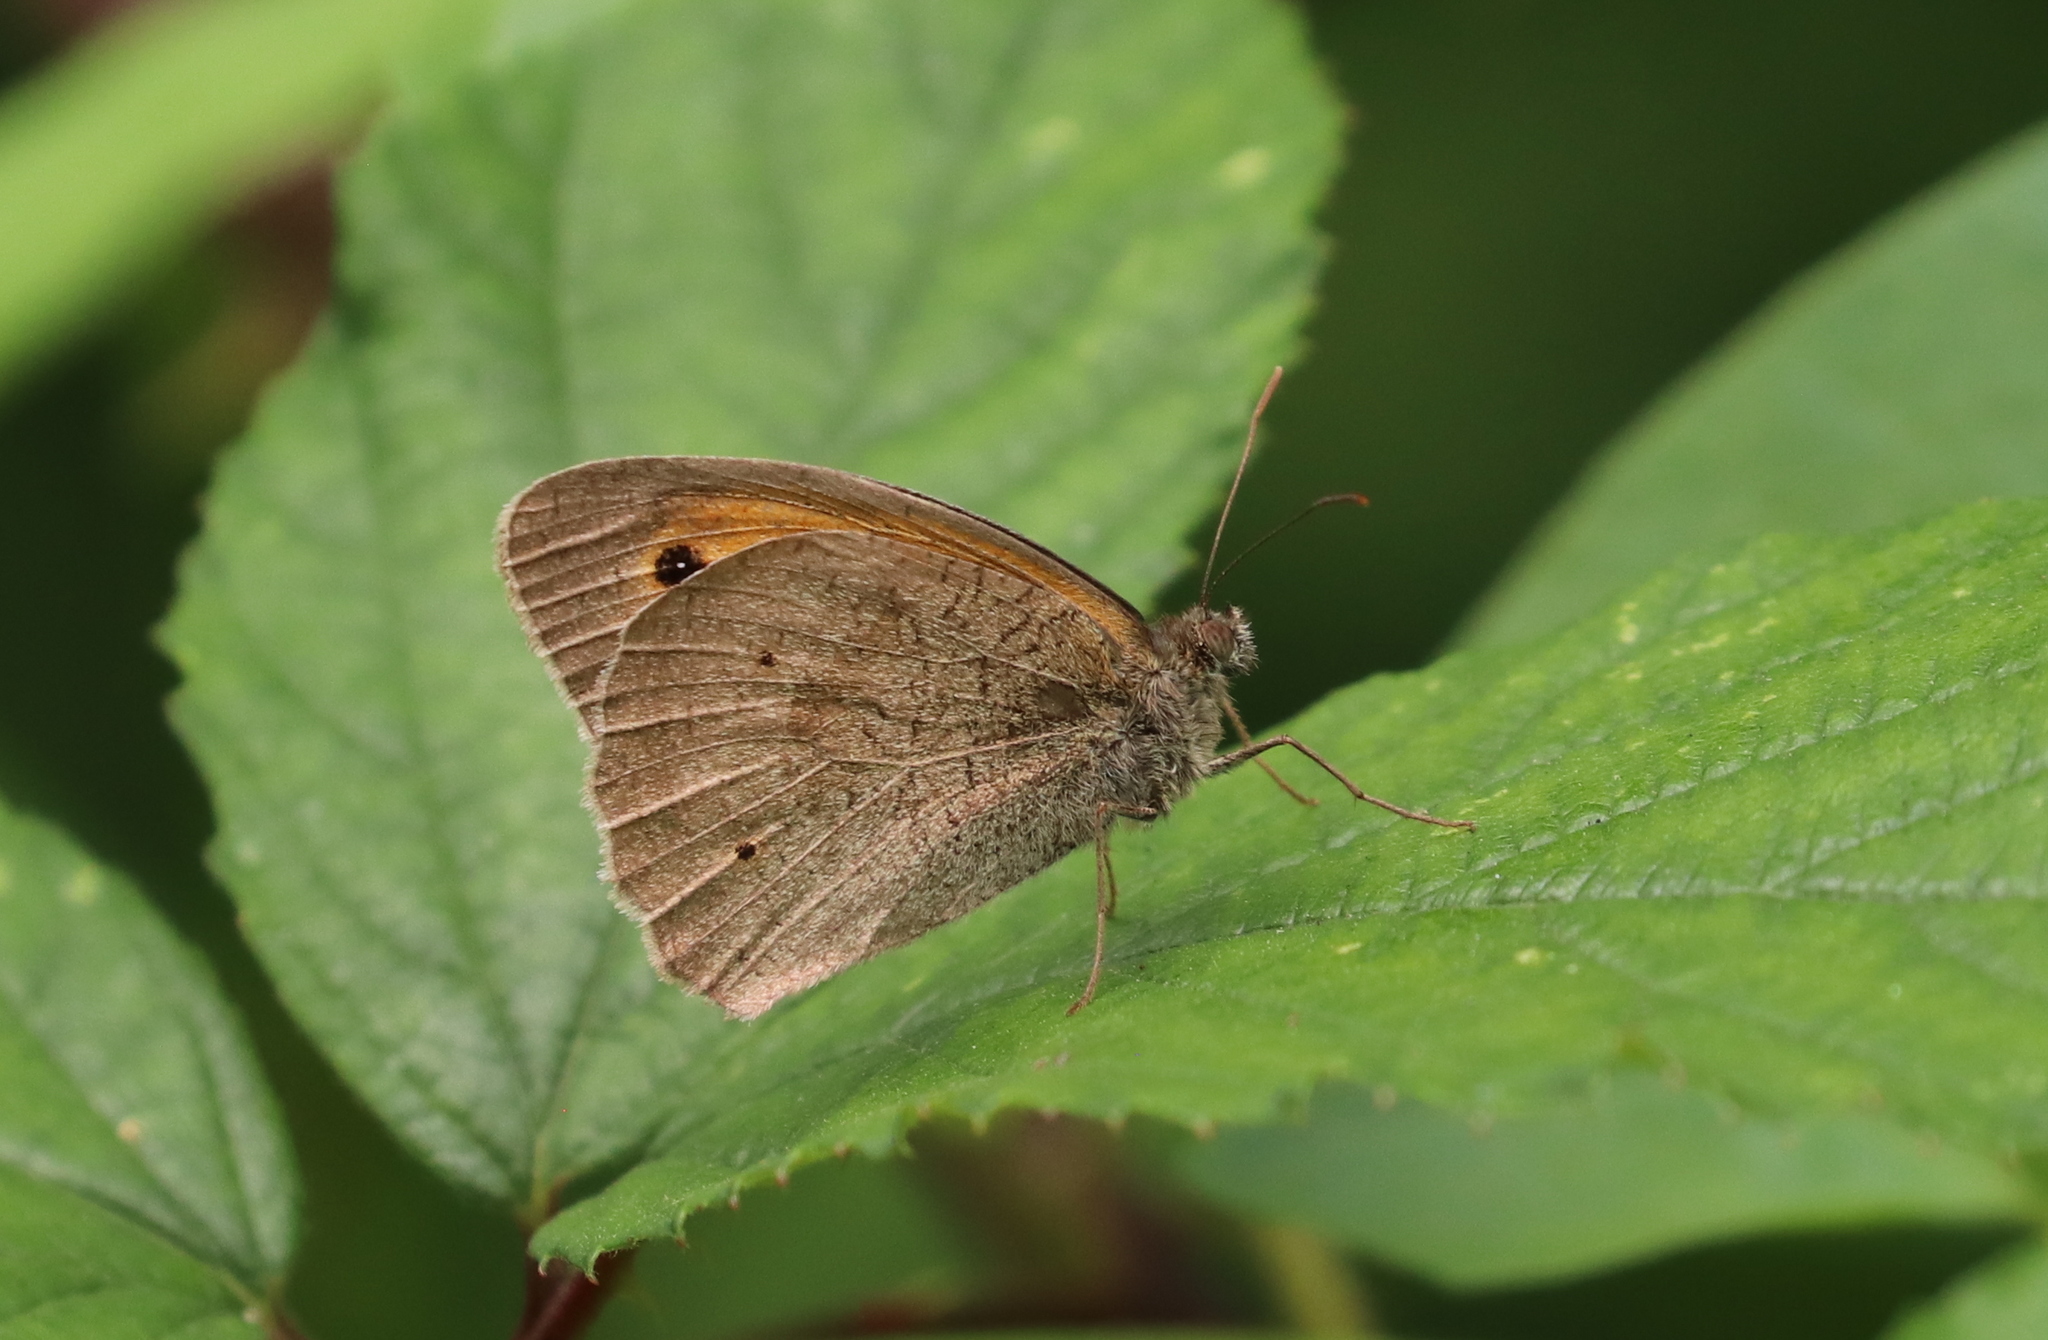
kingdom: Animalia
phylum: Arthropoda
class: Insecta
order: Lepidoptera
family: Nymphalidae
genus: Maniola
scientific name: Maniola jurtina
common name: Meadow brown
